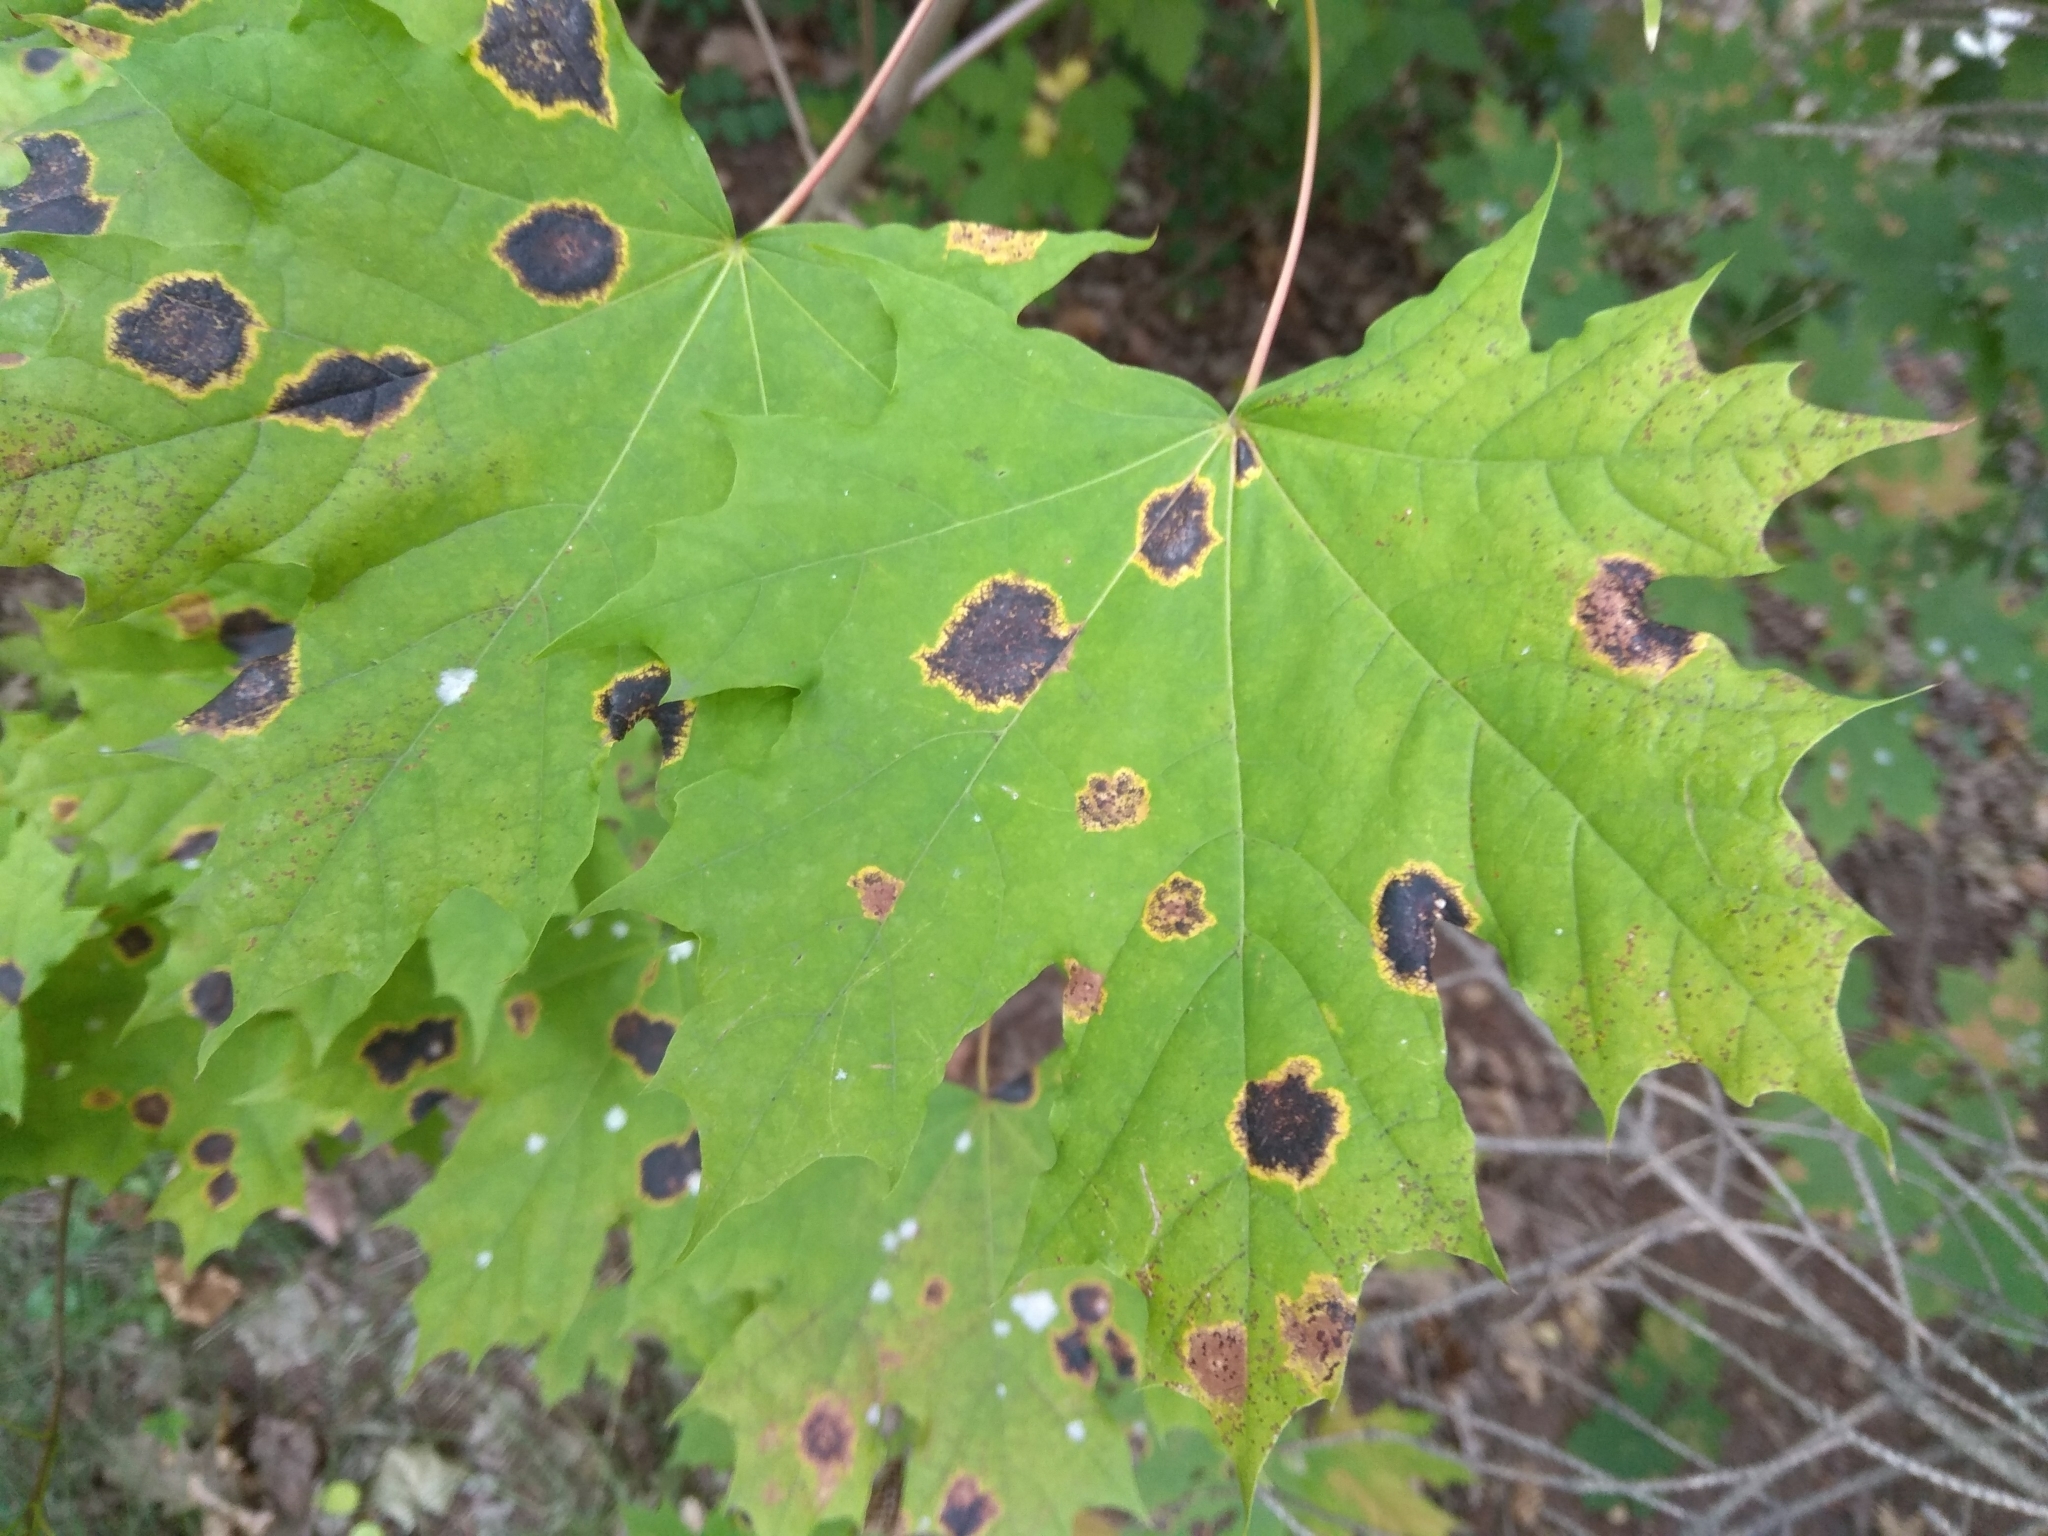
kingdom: Fungi
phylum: Ascomycota
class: Leotiomycetes
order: Rhytismatales
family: Rhytismataceae
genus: Rhytisma
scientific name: Rhytisma acerinum
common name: European tar spot
